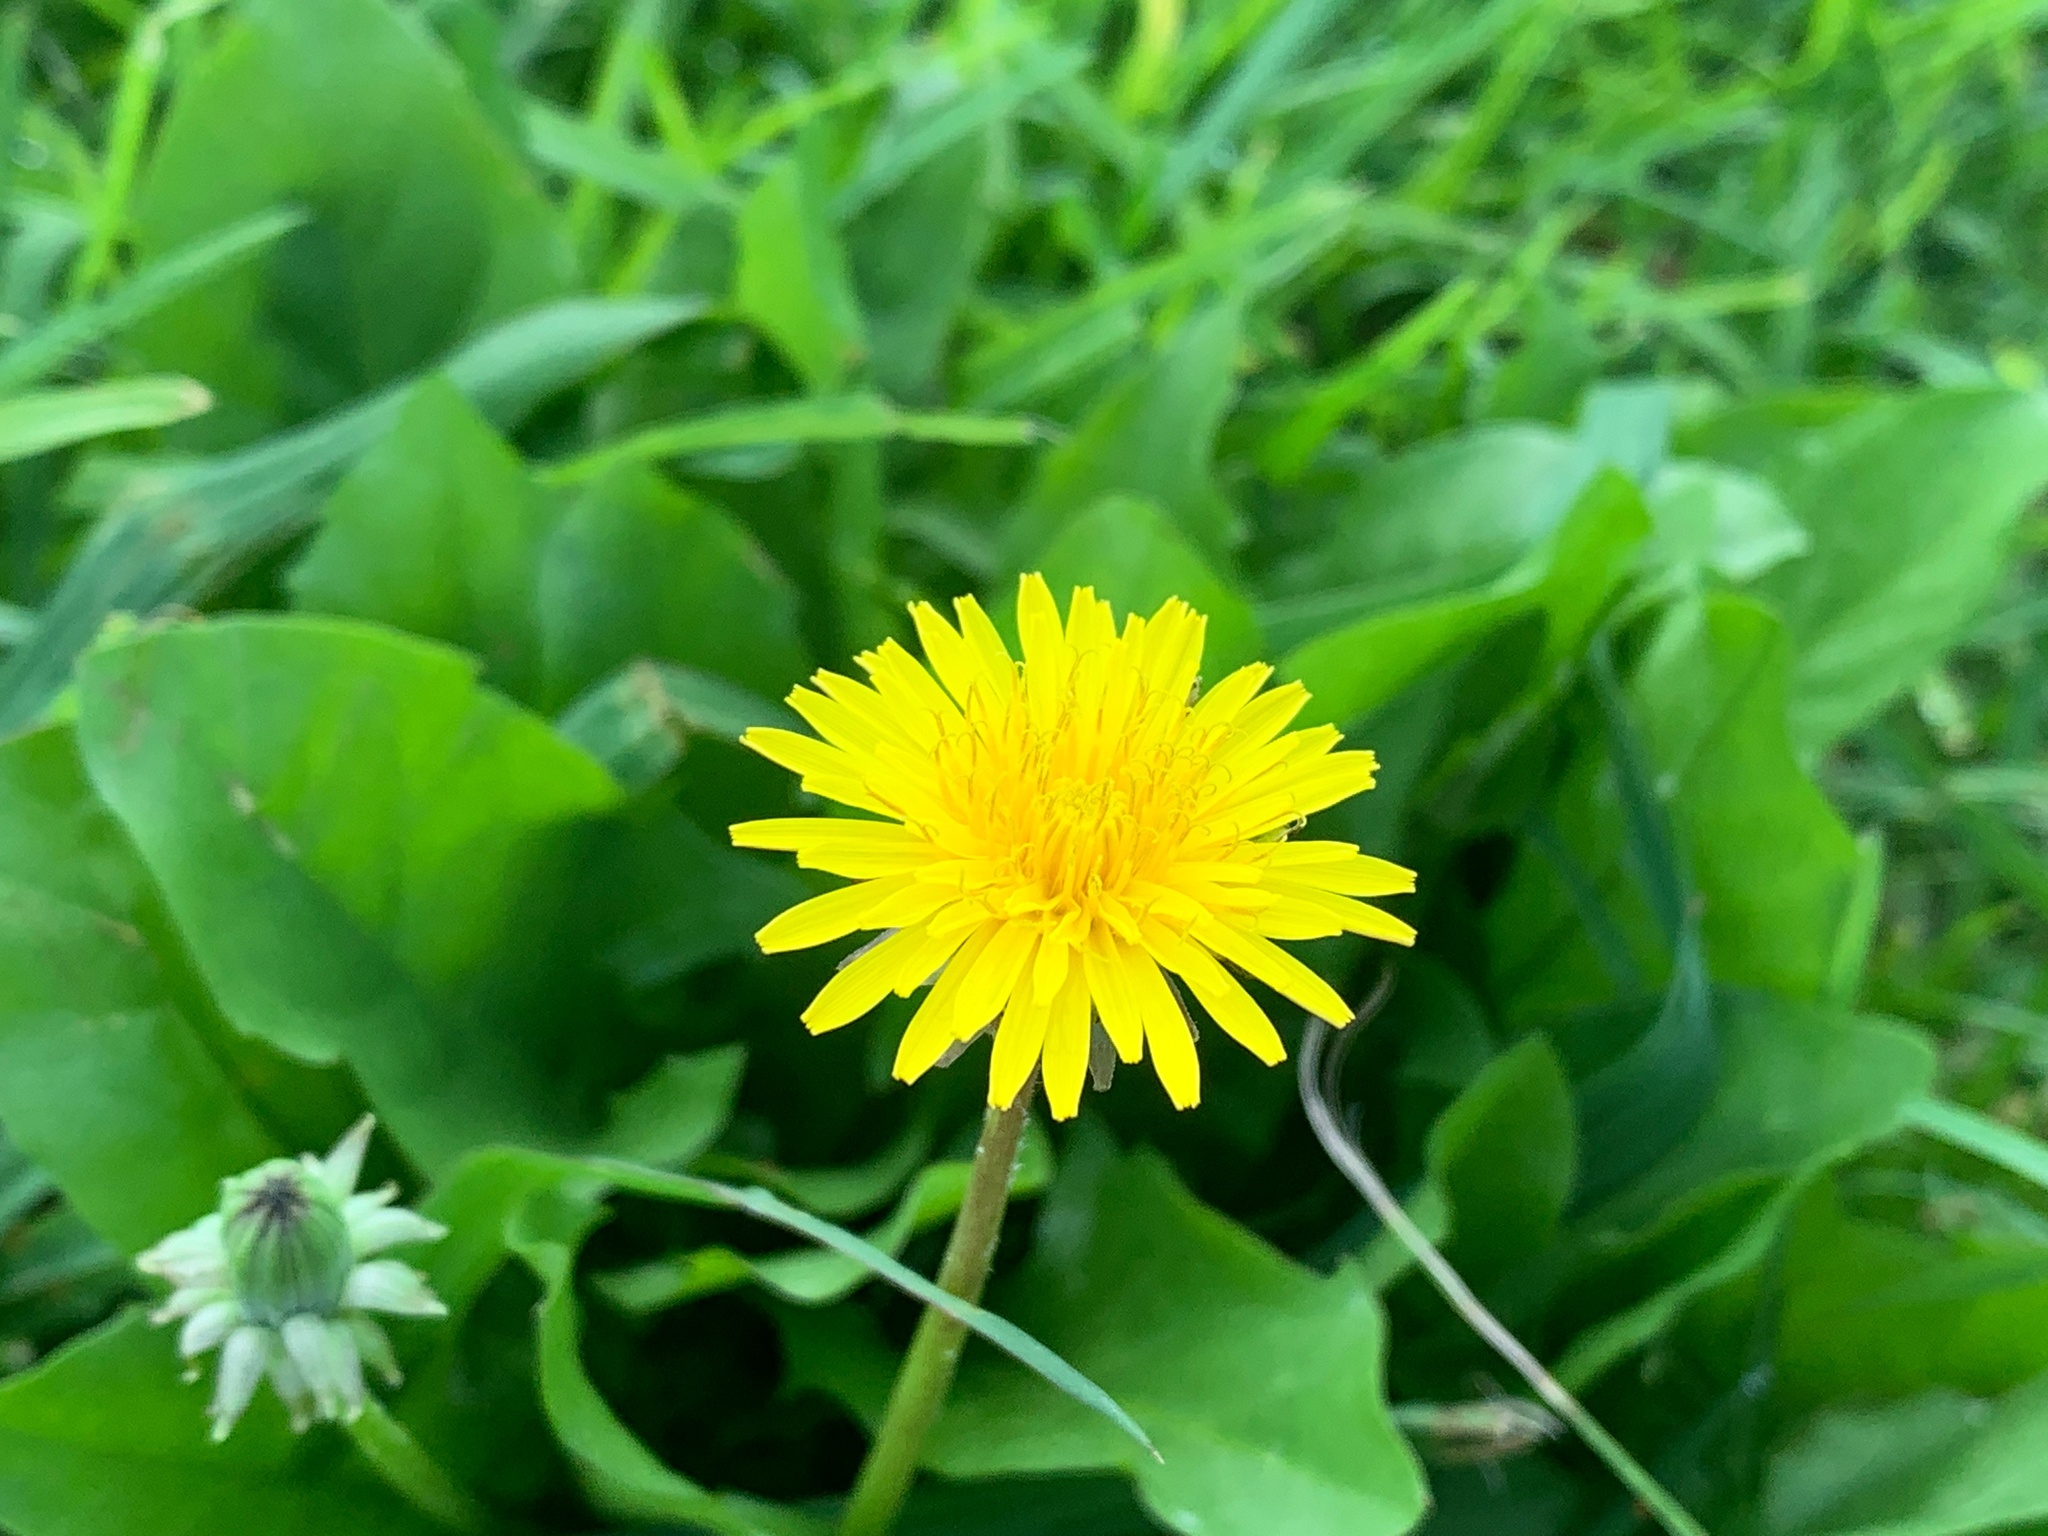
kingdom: Plantae
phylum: Tracheophyta
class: Magnoliopsida
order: Asterales
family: Asteraceae
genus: Taraxacum
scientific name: Taraxacum officinale
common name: Common dandelion
